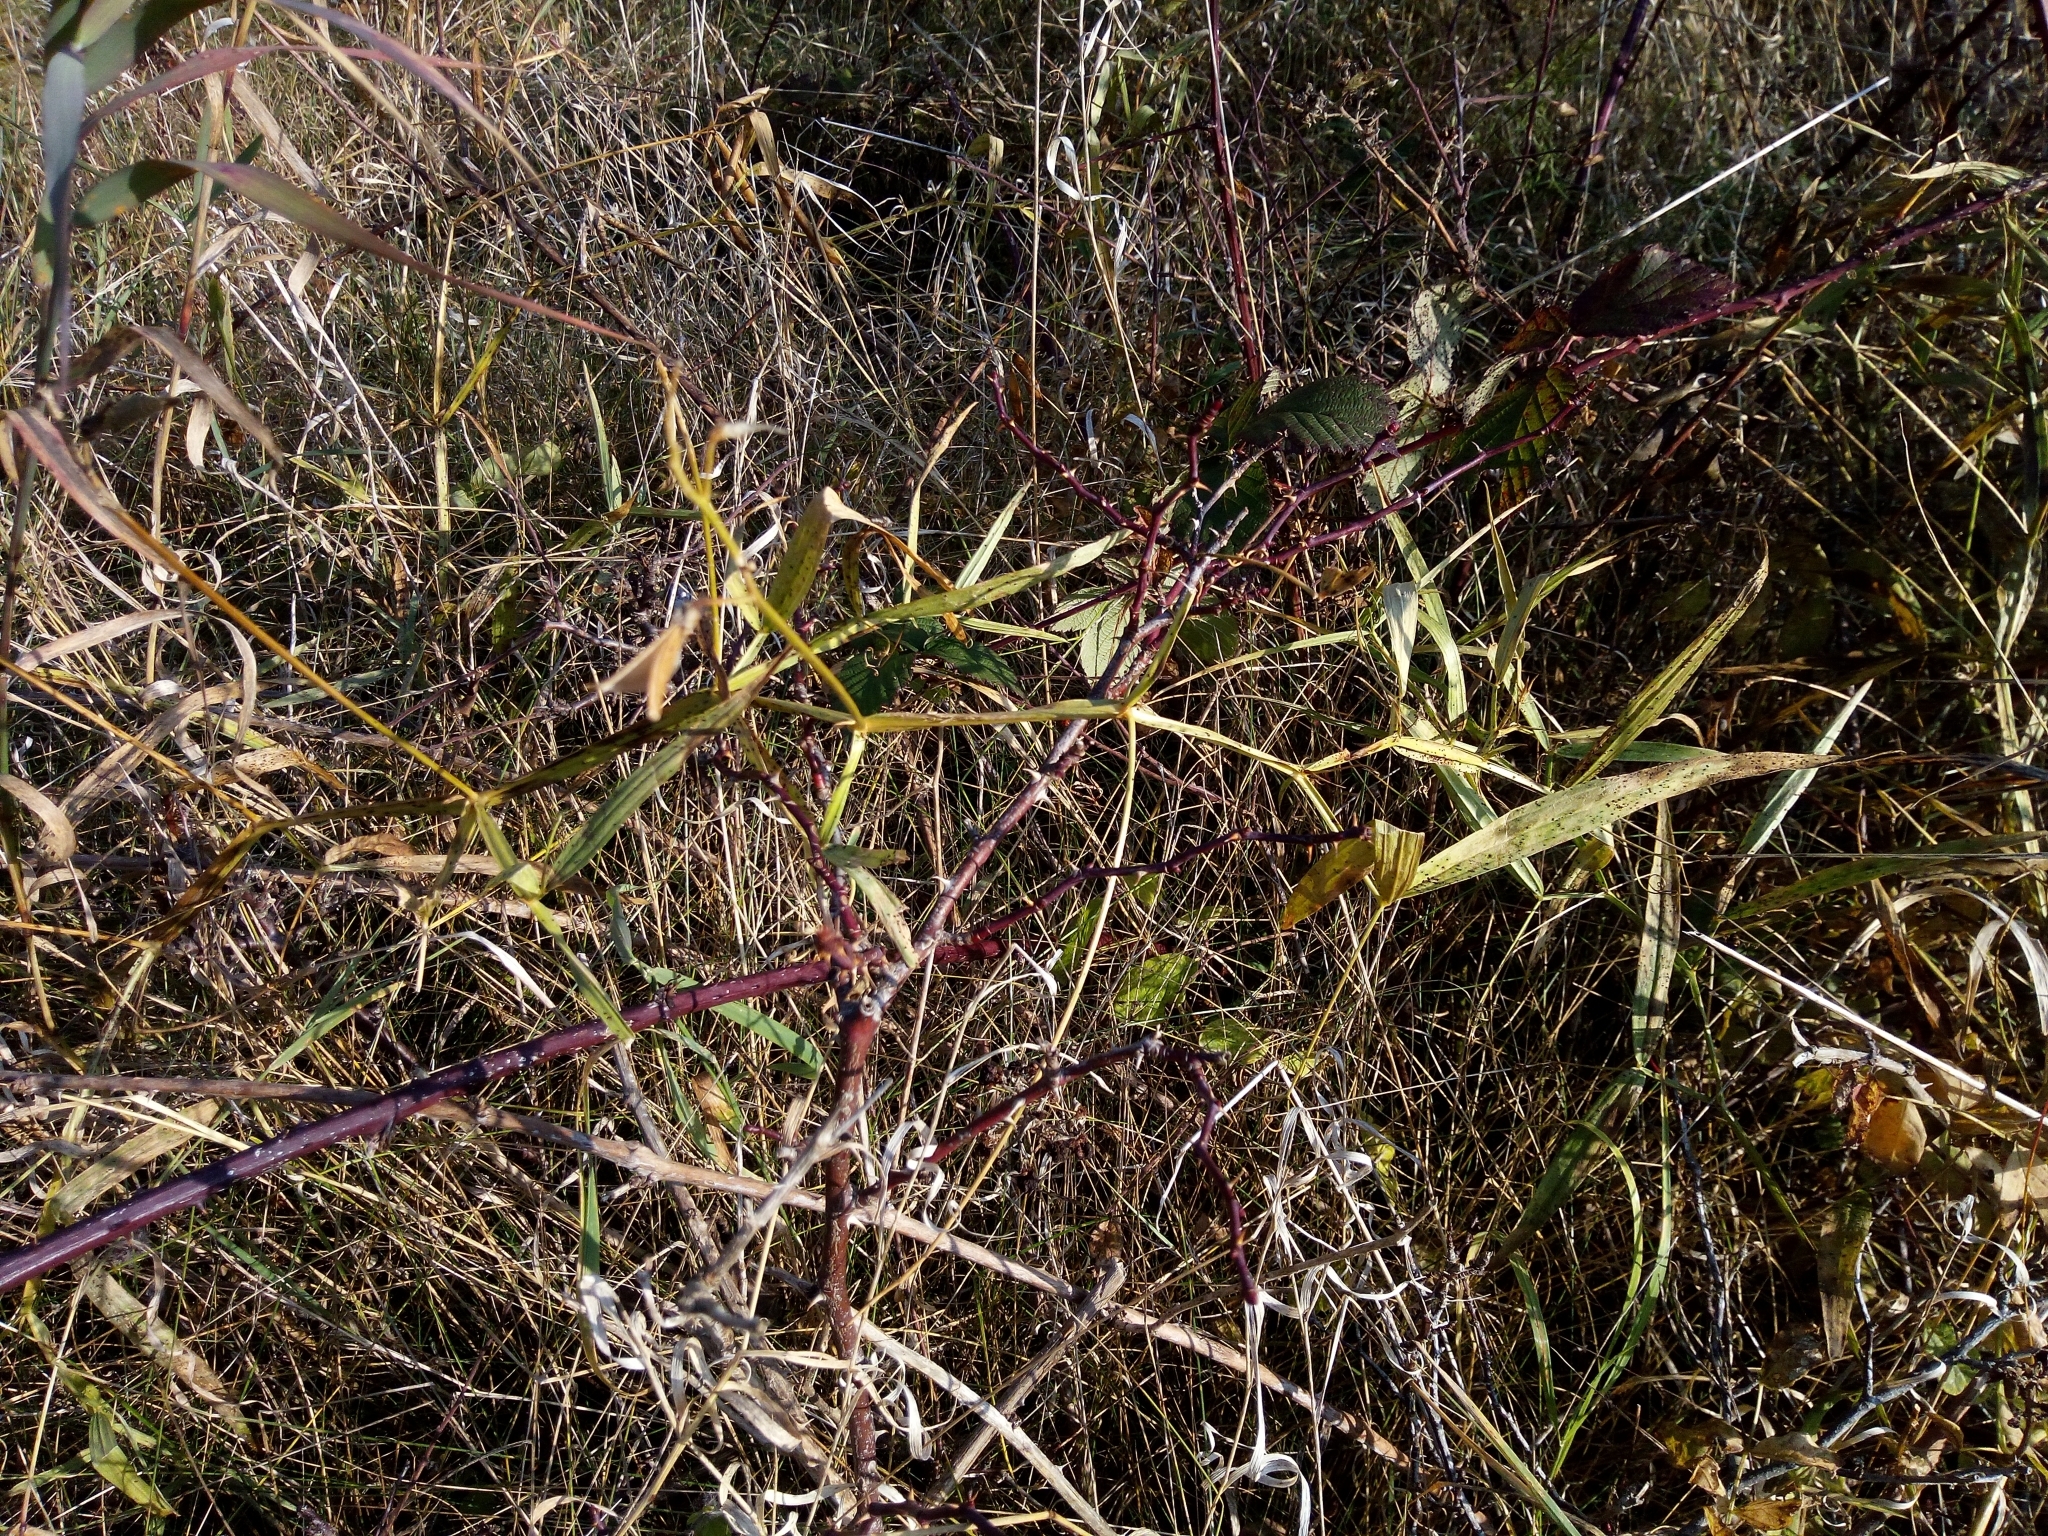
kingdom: Plantae
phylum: Tracheophyta
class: Magnoliopsida
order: Fabales
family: Fabaceae
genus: Lathyrus
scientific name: Lathyrus sylvestris
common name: Flat pea
